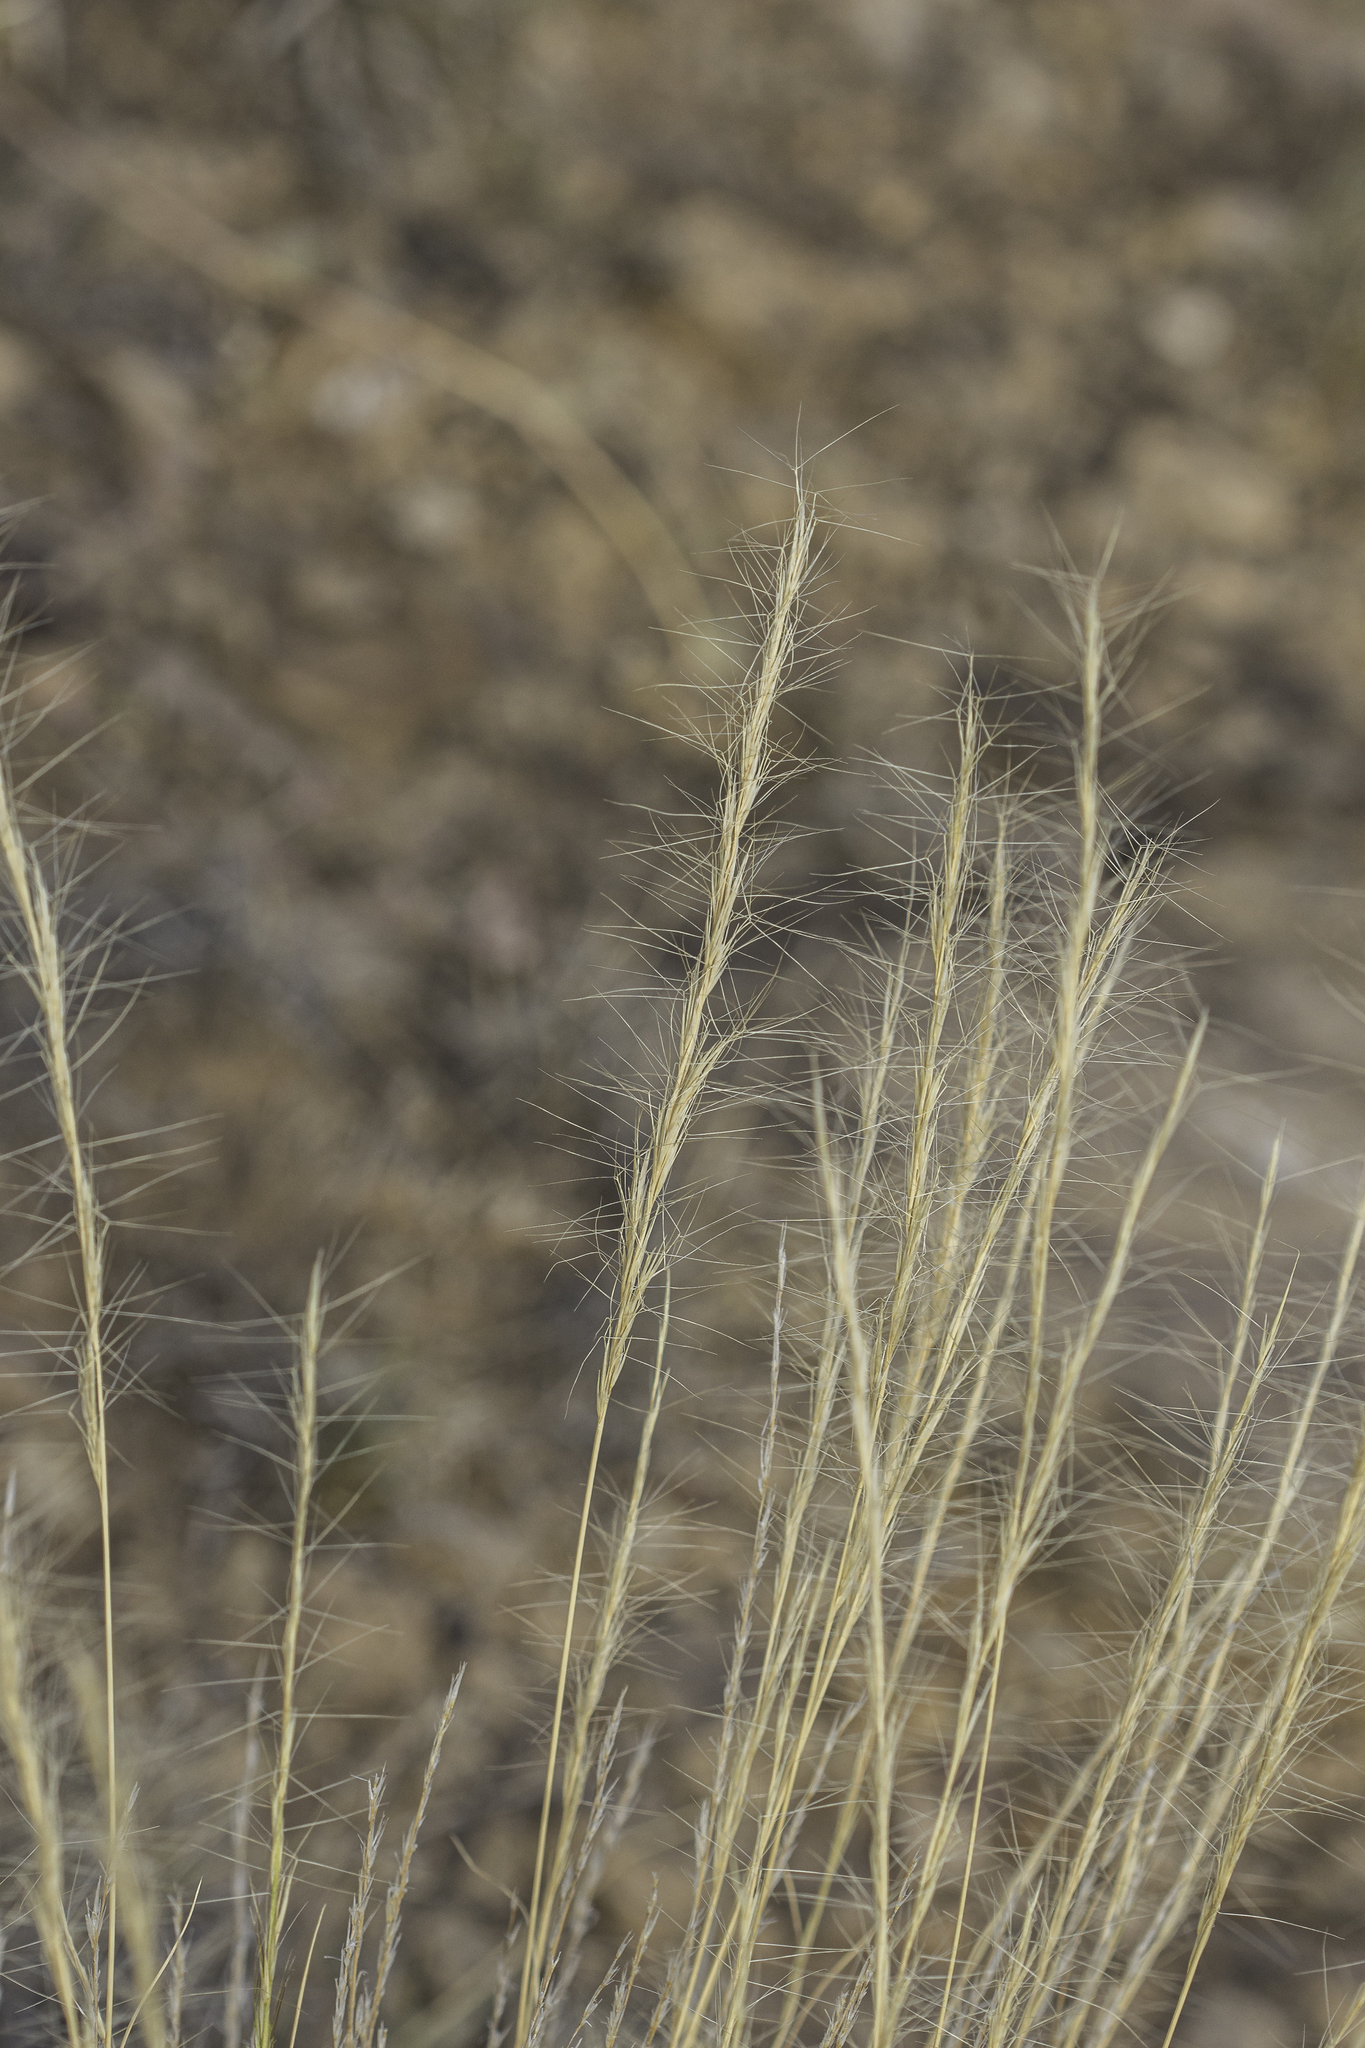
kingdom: Plantae
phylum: Tracheophyta
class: Liliopsida
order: Poales
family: Poaceae
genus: Aristida
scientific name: Aristida glauca
